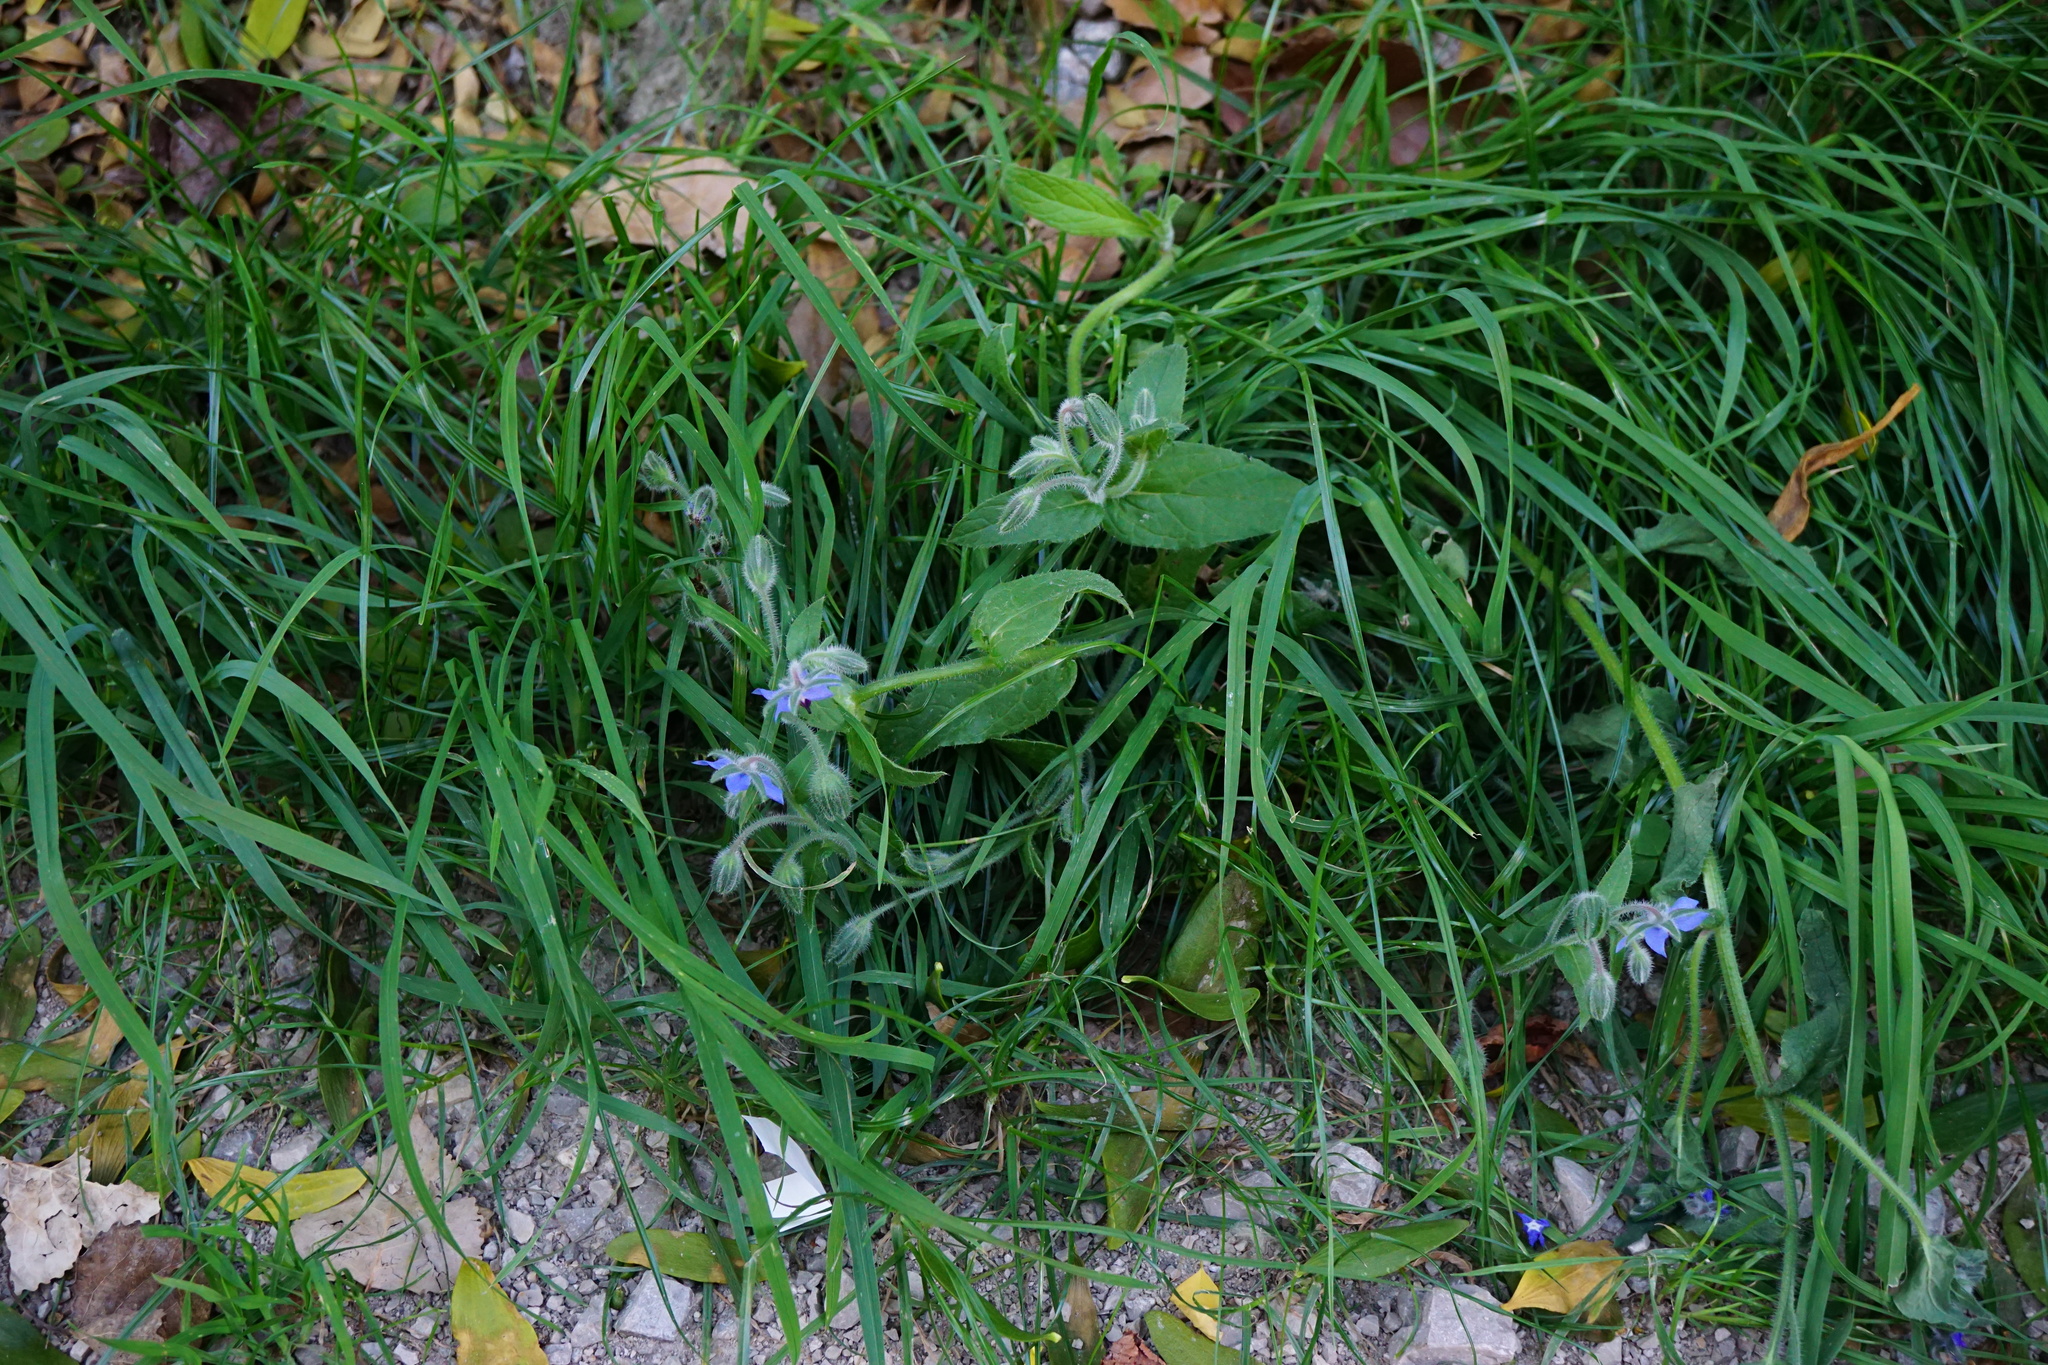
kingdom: Plantae
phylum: Tracheophyta
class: Magnoliopsida
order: Boraginales
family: Boraginaceae
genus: Borago
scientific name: Borago officinalis
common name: Borage
